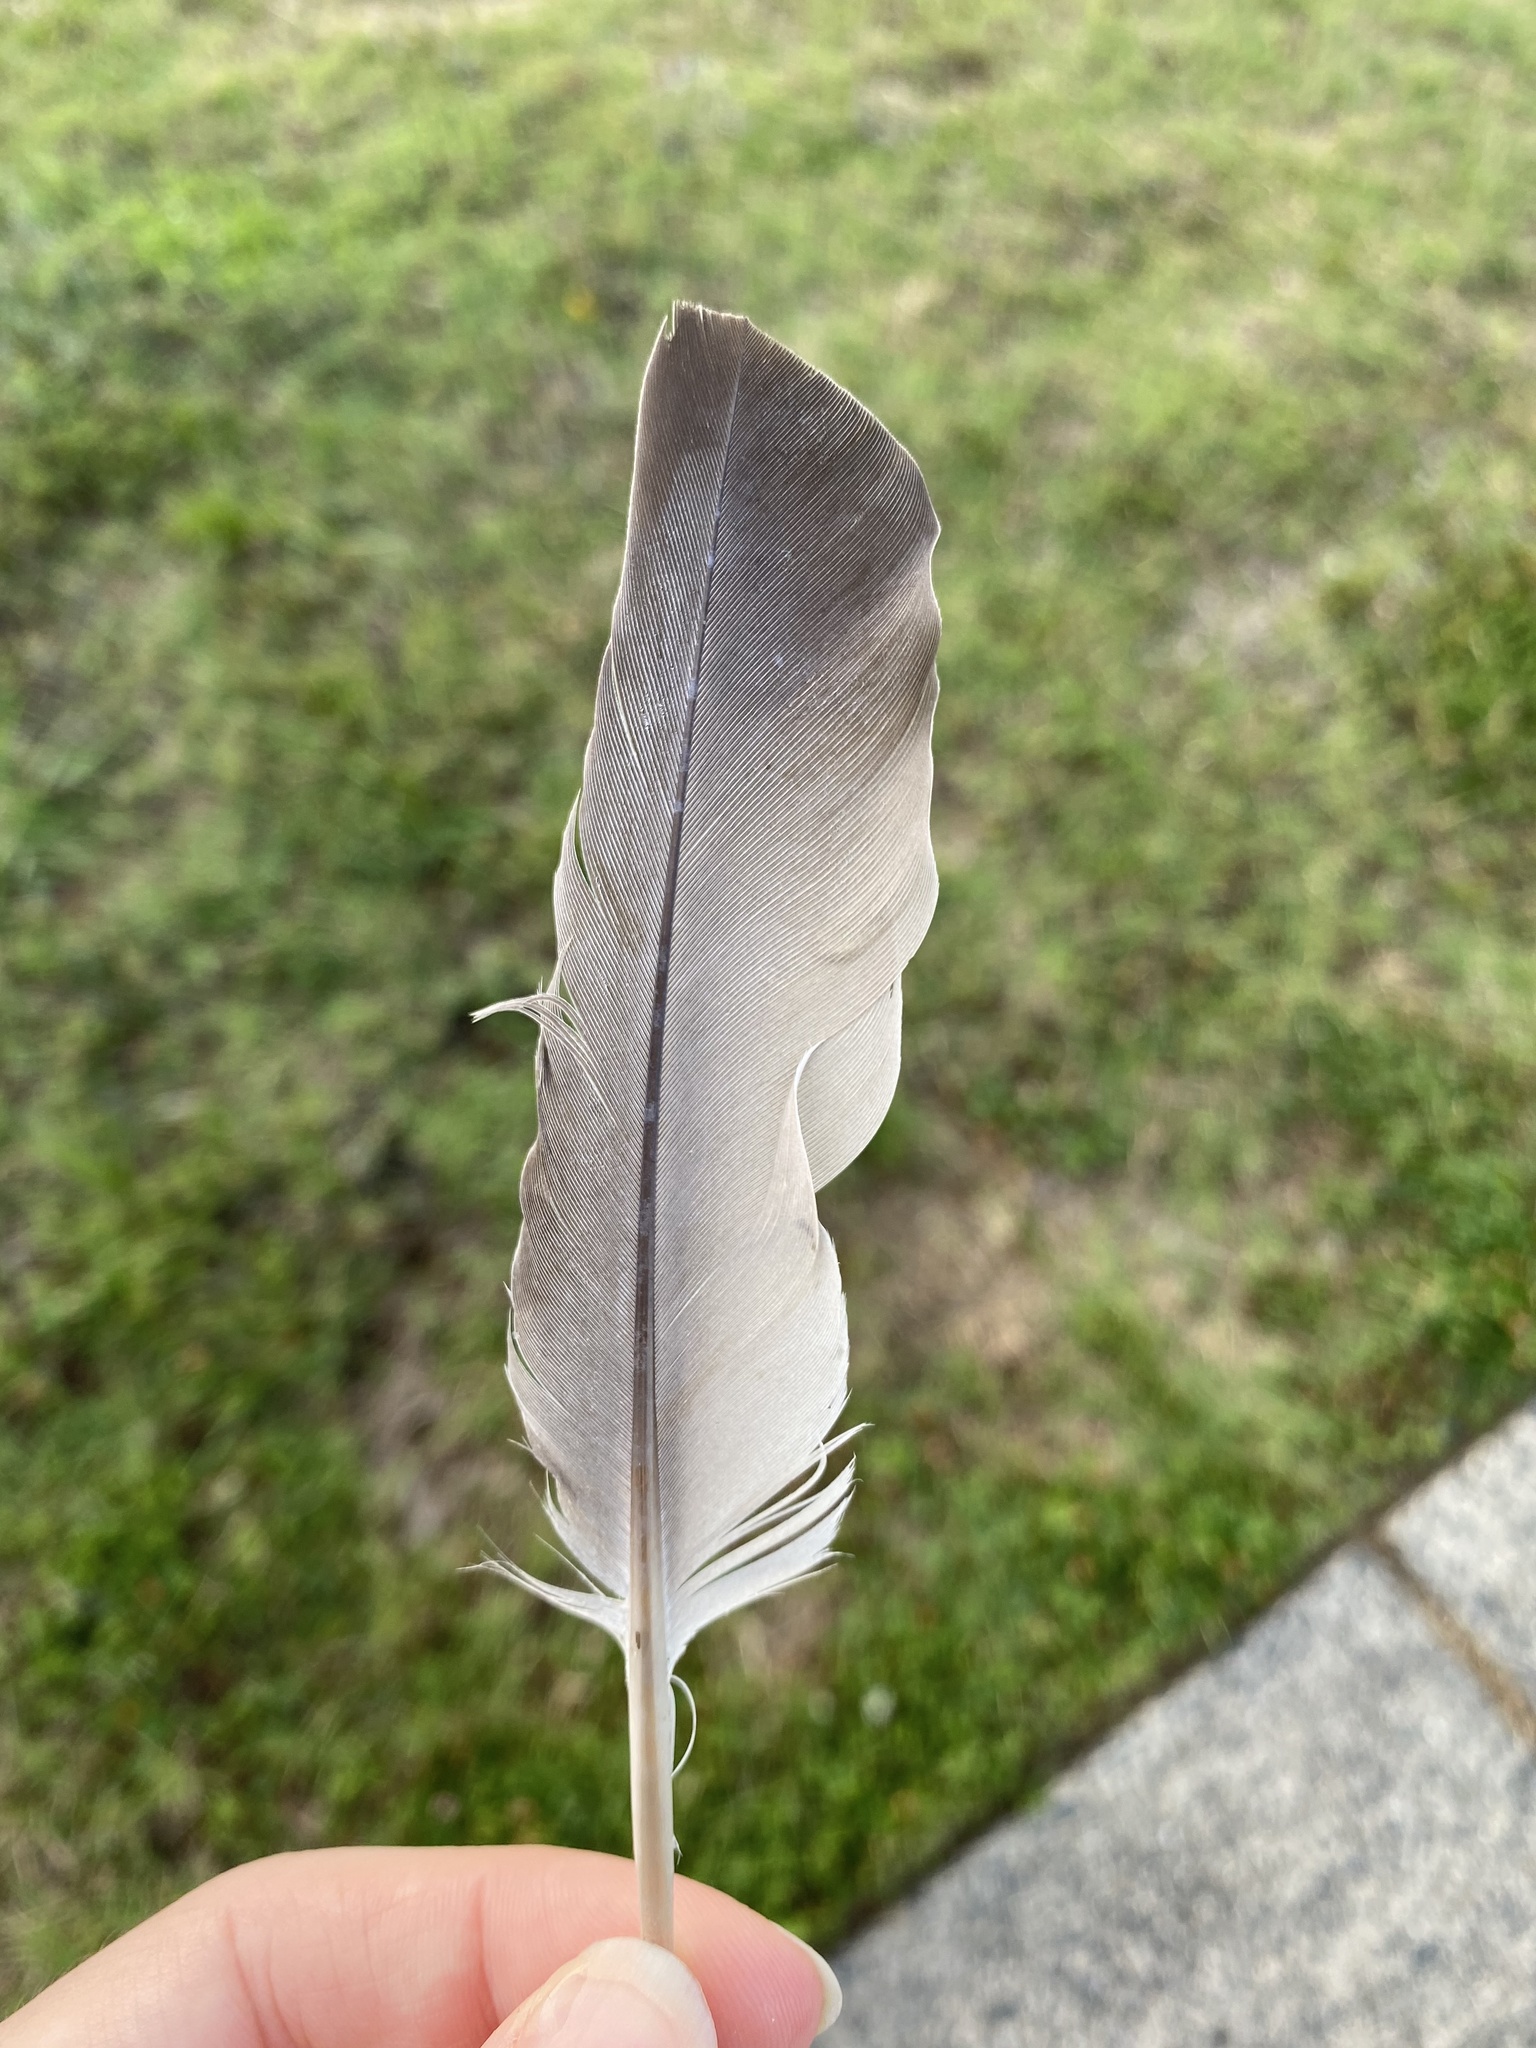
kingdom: Animalia
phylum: Chordata
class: Aves
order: Columbiformes
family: Columbidae
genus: Columba
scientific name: Columba livia
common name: Rock pigeon
